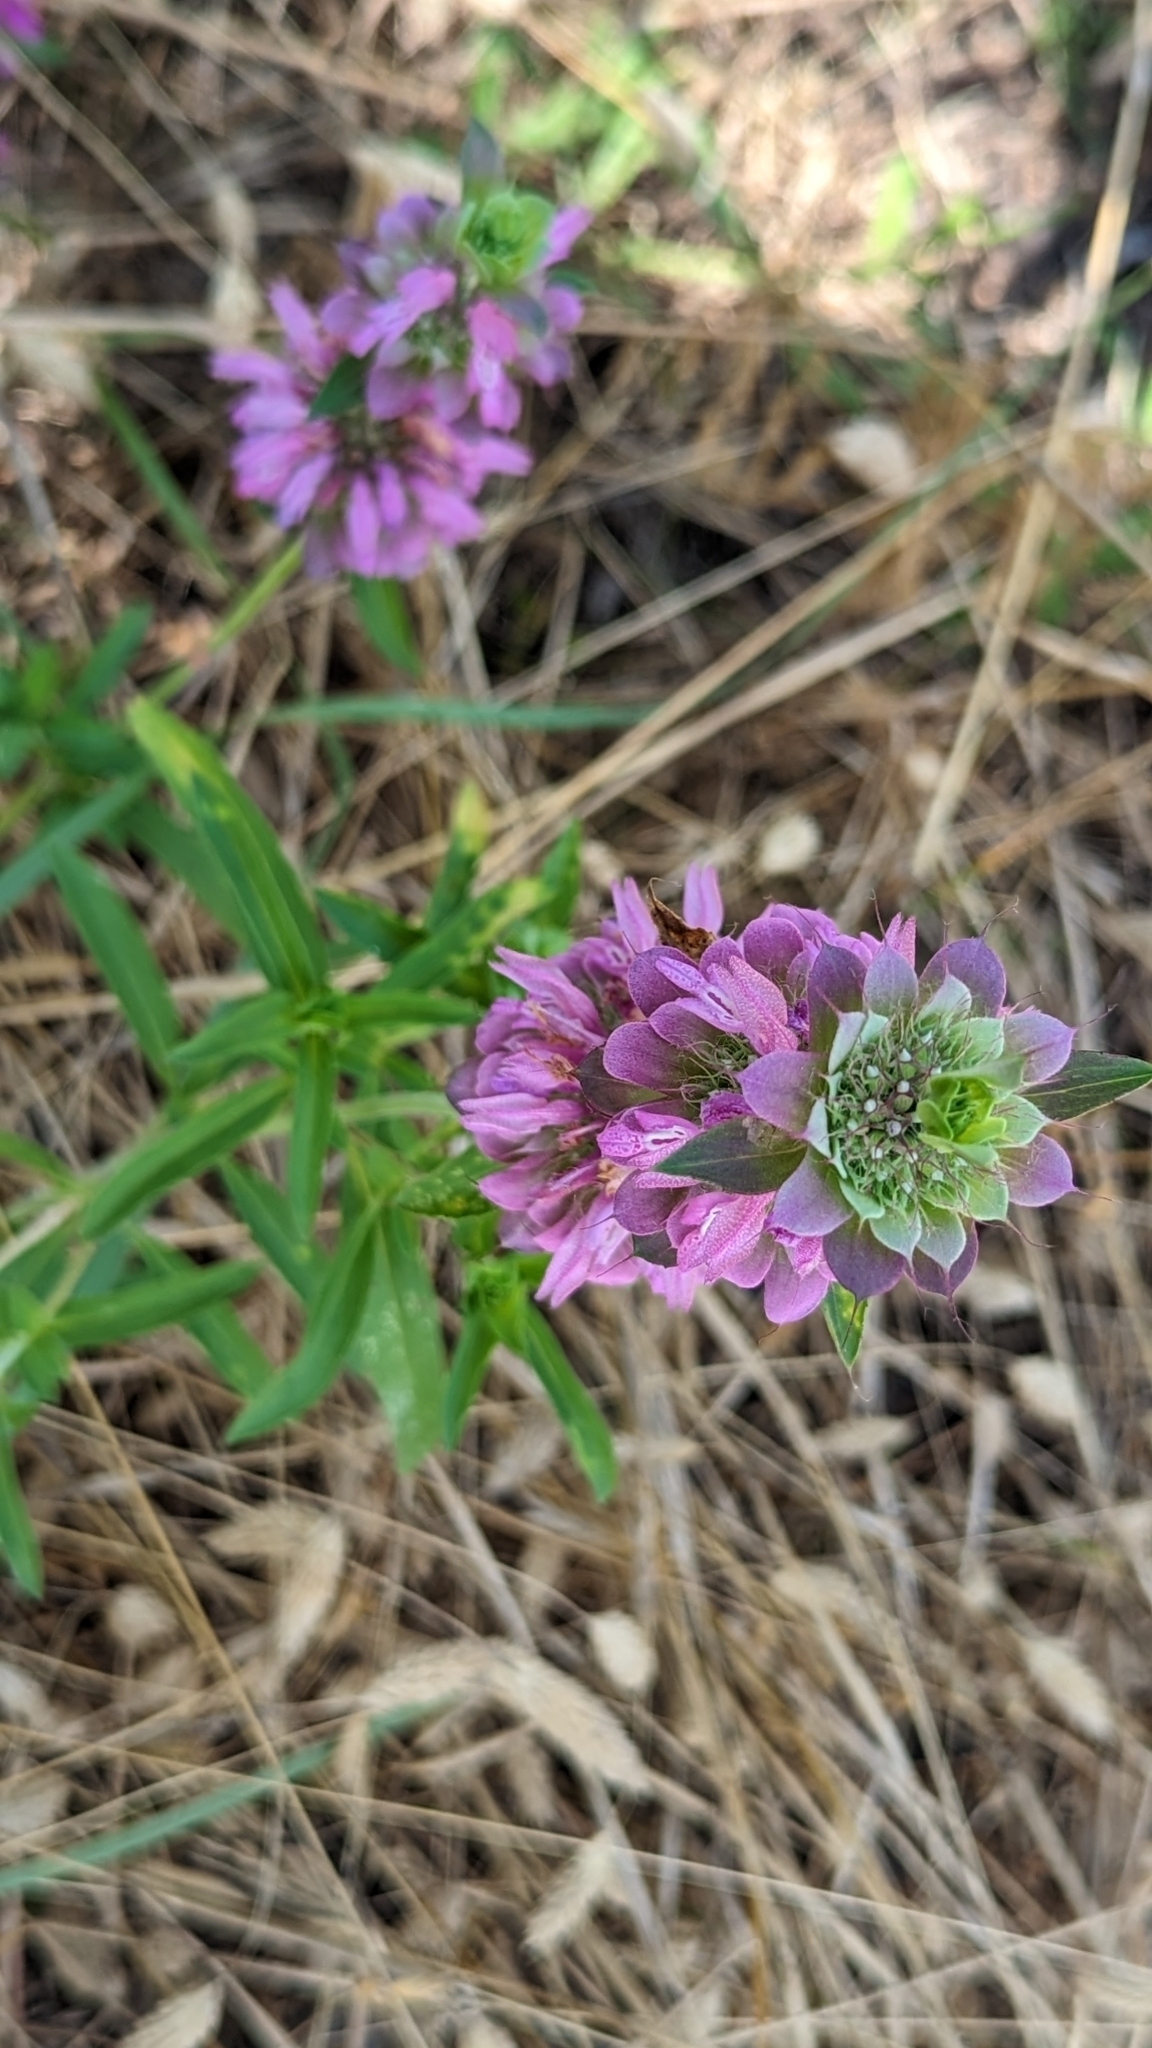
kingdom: Plantae
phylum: Tracheophyta
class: Magnoliopsida
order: Lamiales
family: Lamiaceae
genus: Monarda
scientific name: Monarda citriodora
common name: Lemon beebalm
